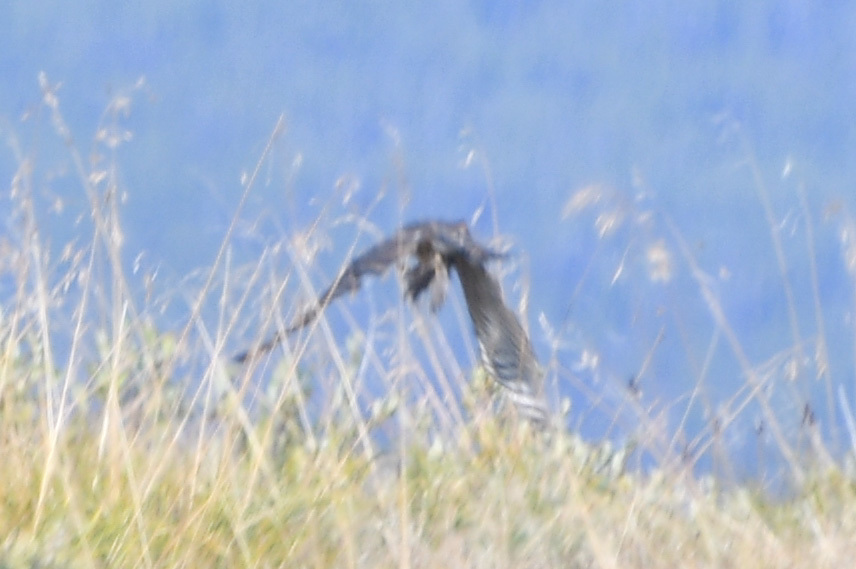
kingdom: Animalia
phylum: Chordata
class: Aves
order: Falconiformes
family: Falconidae
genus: Falco
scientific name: Falco columbarius
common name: Merlin
